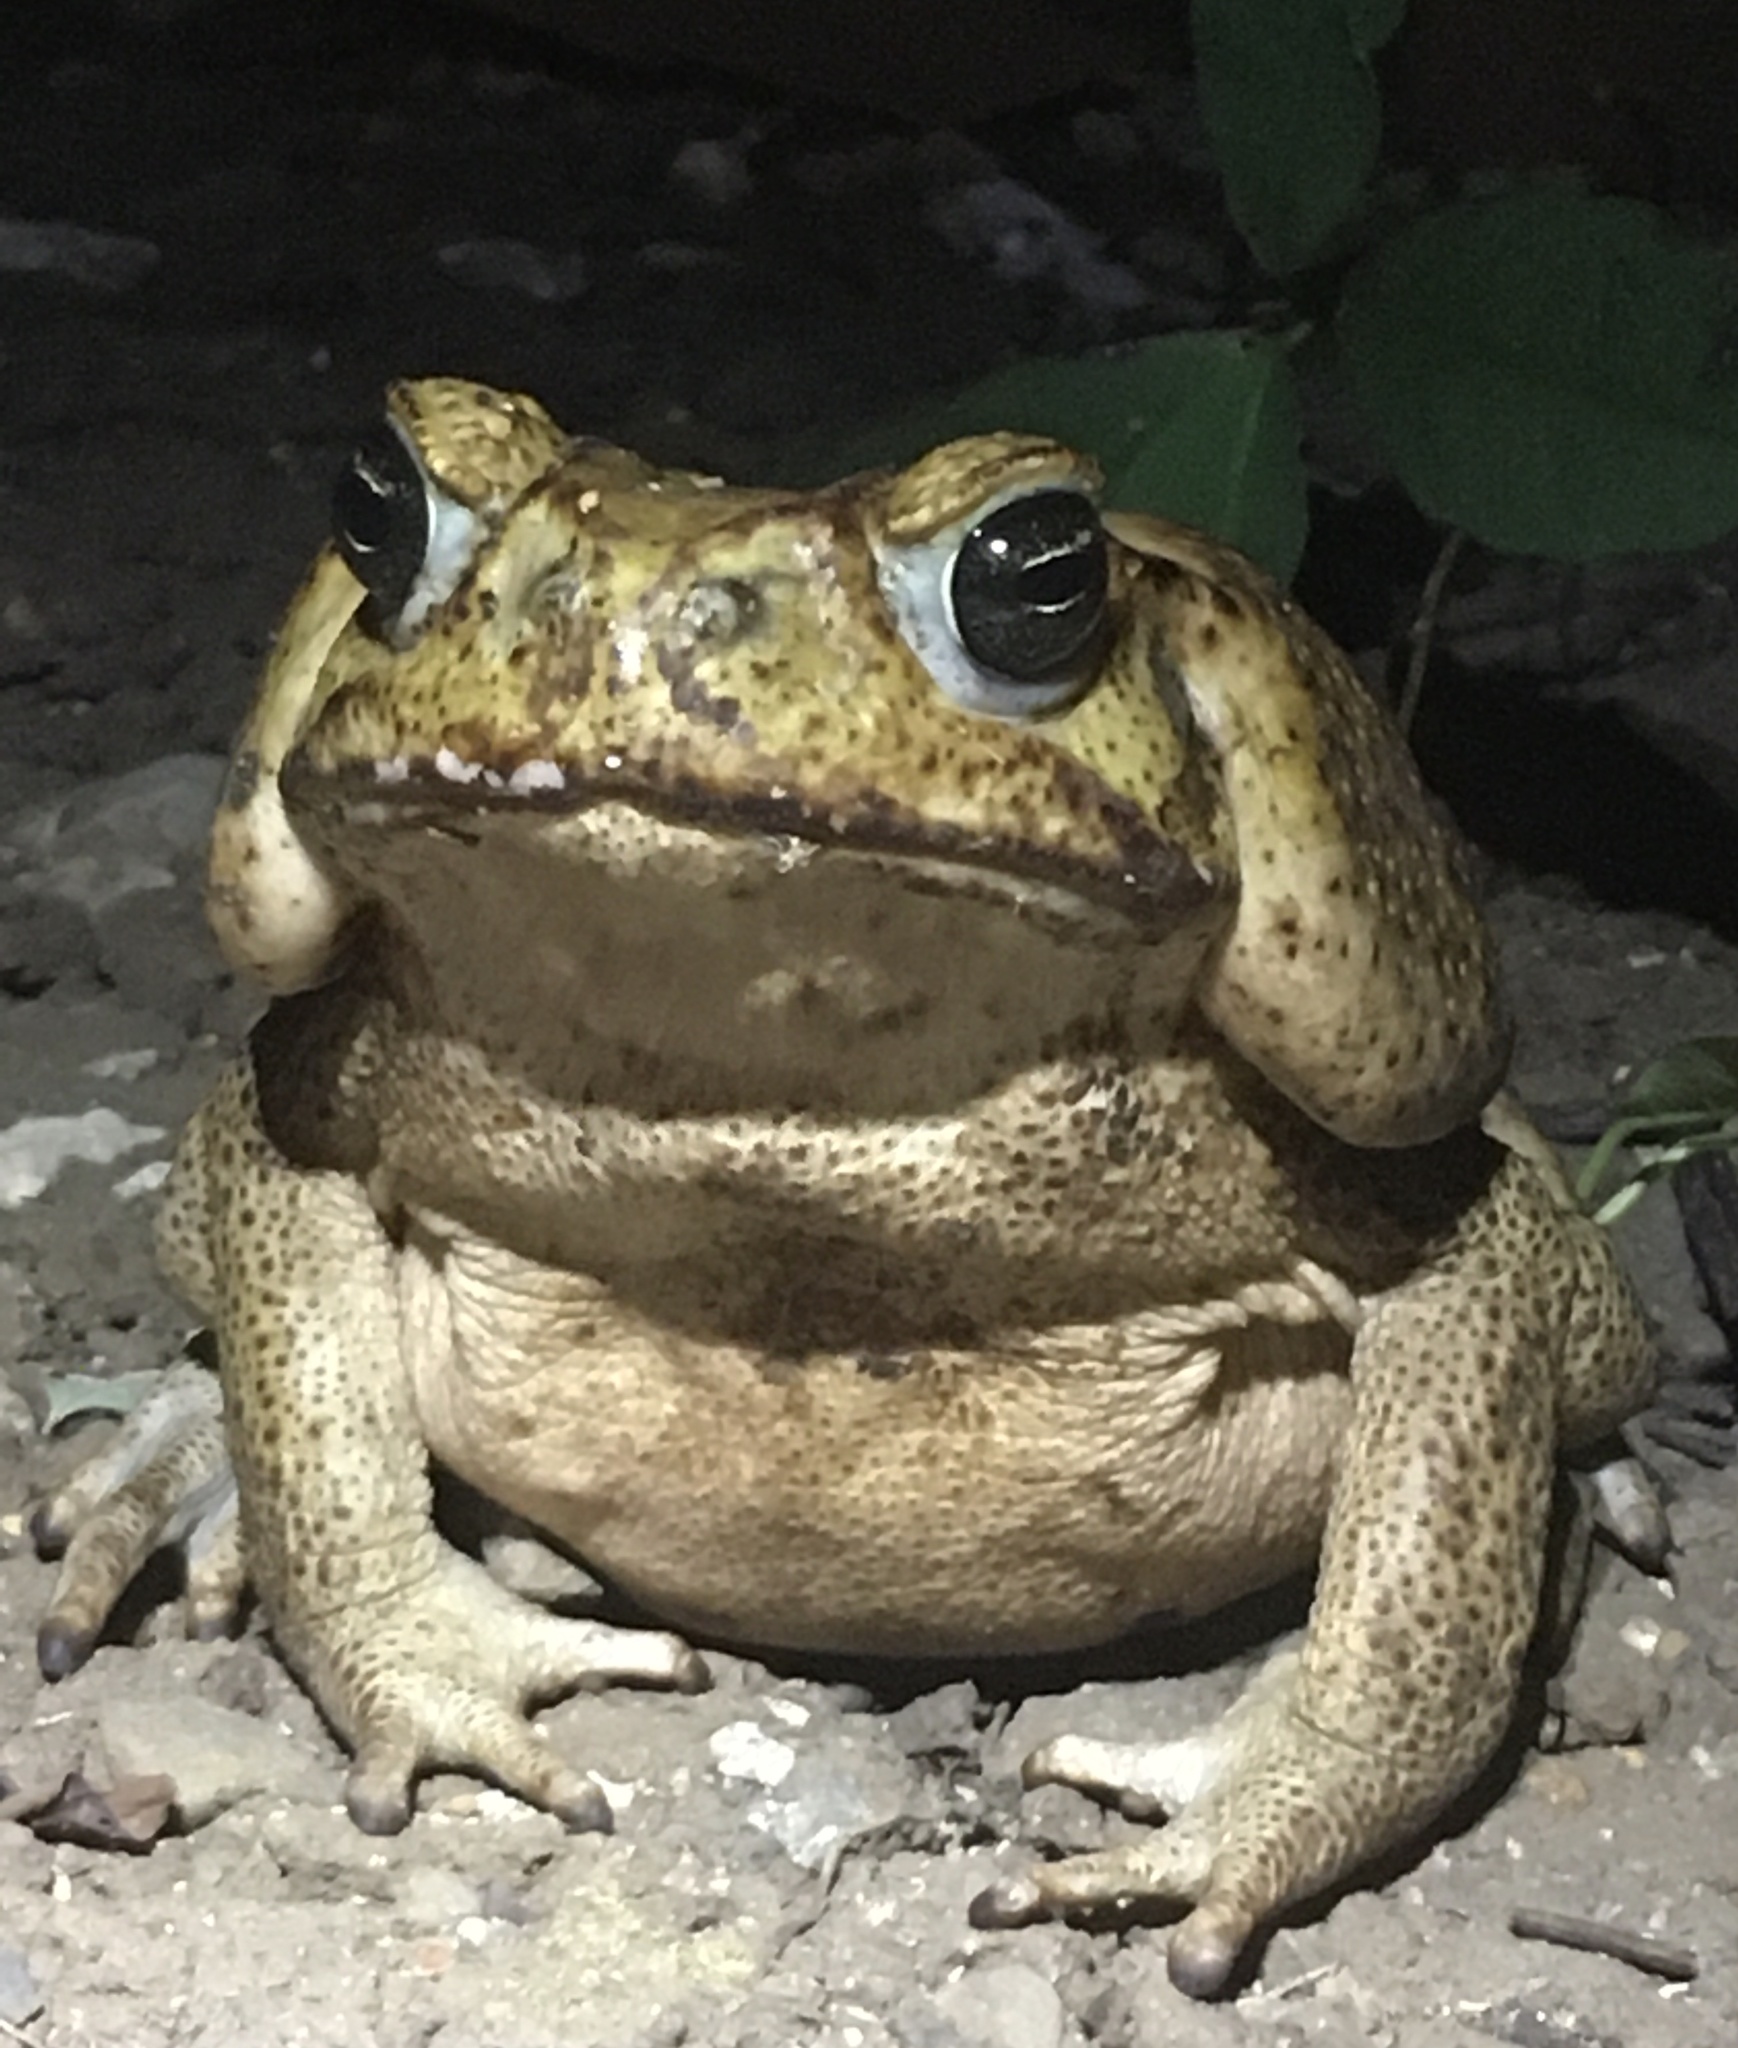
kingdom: Animalia
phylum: Chordata
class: Amphibia
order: Anura
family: Bufonidae
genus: Rhinella
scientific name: Rhinella horribilis
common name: Mesoamerican cane toad
